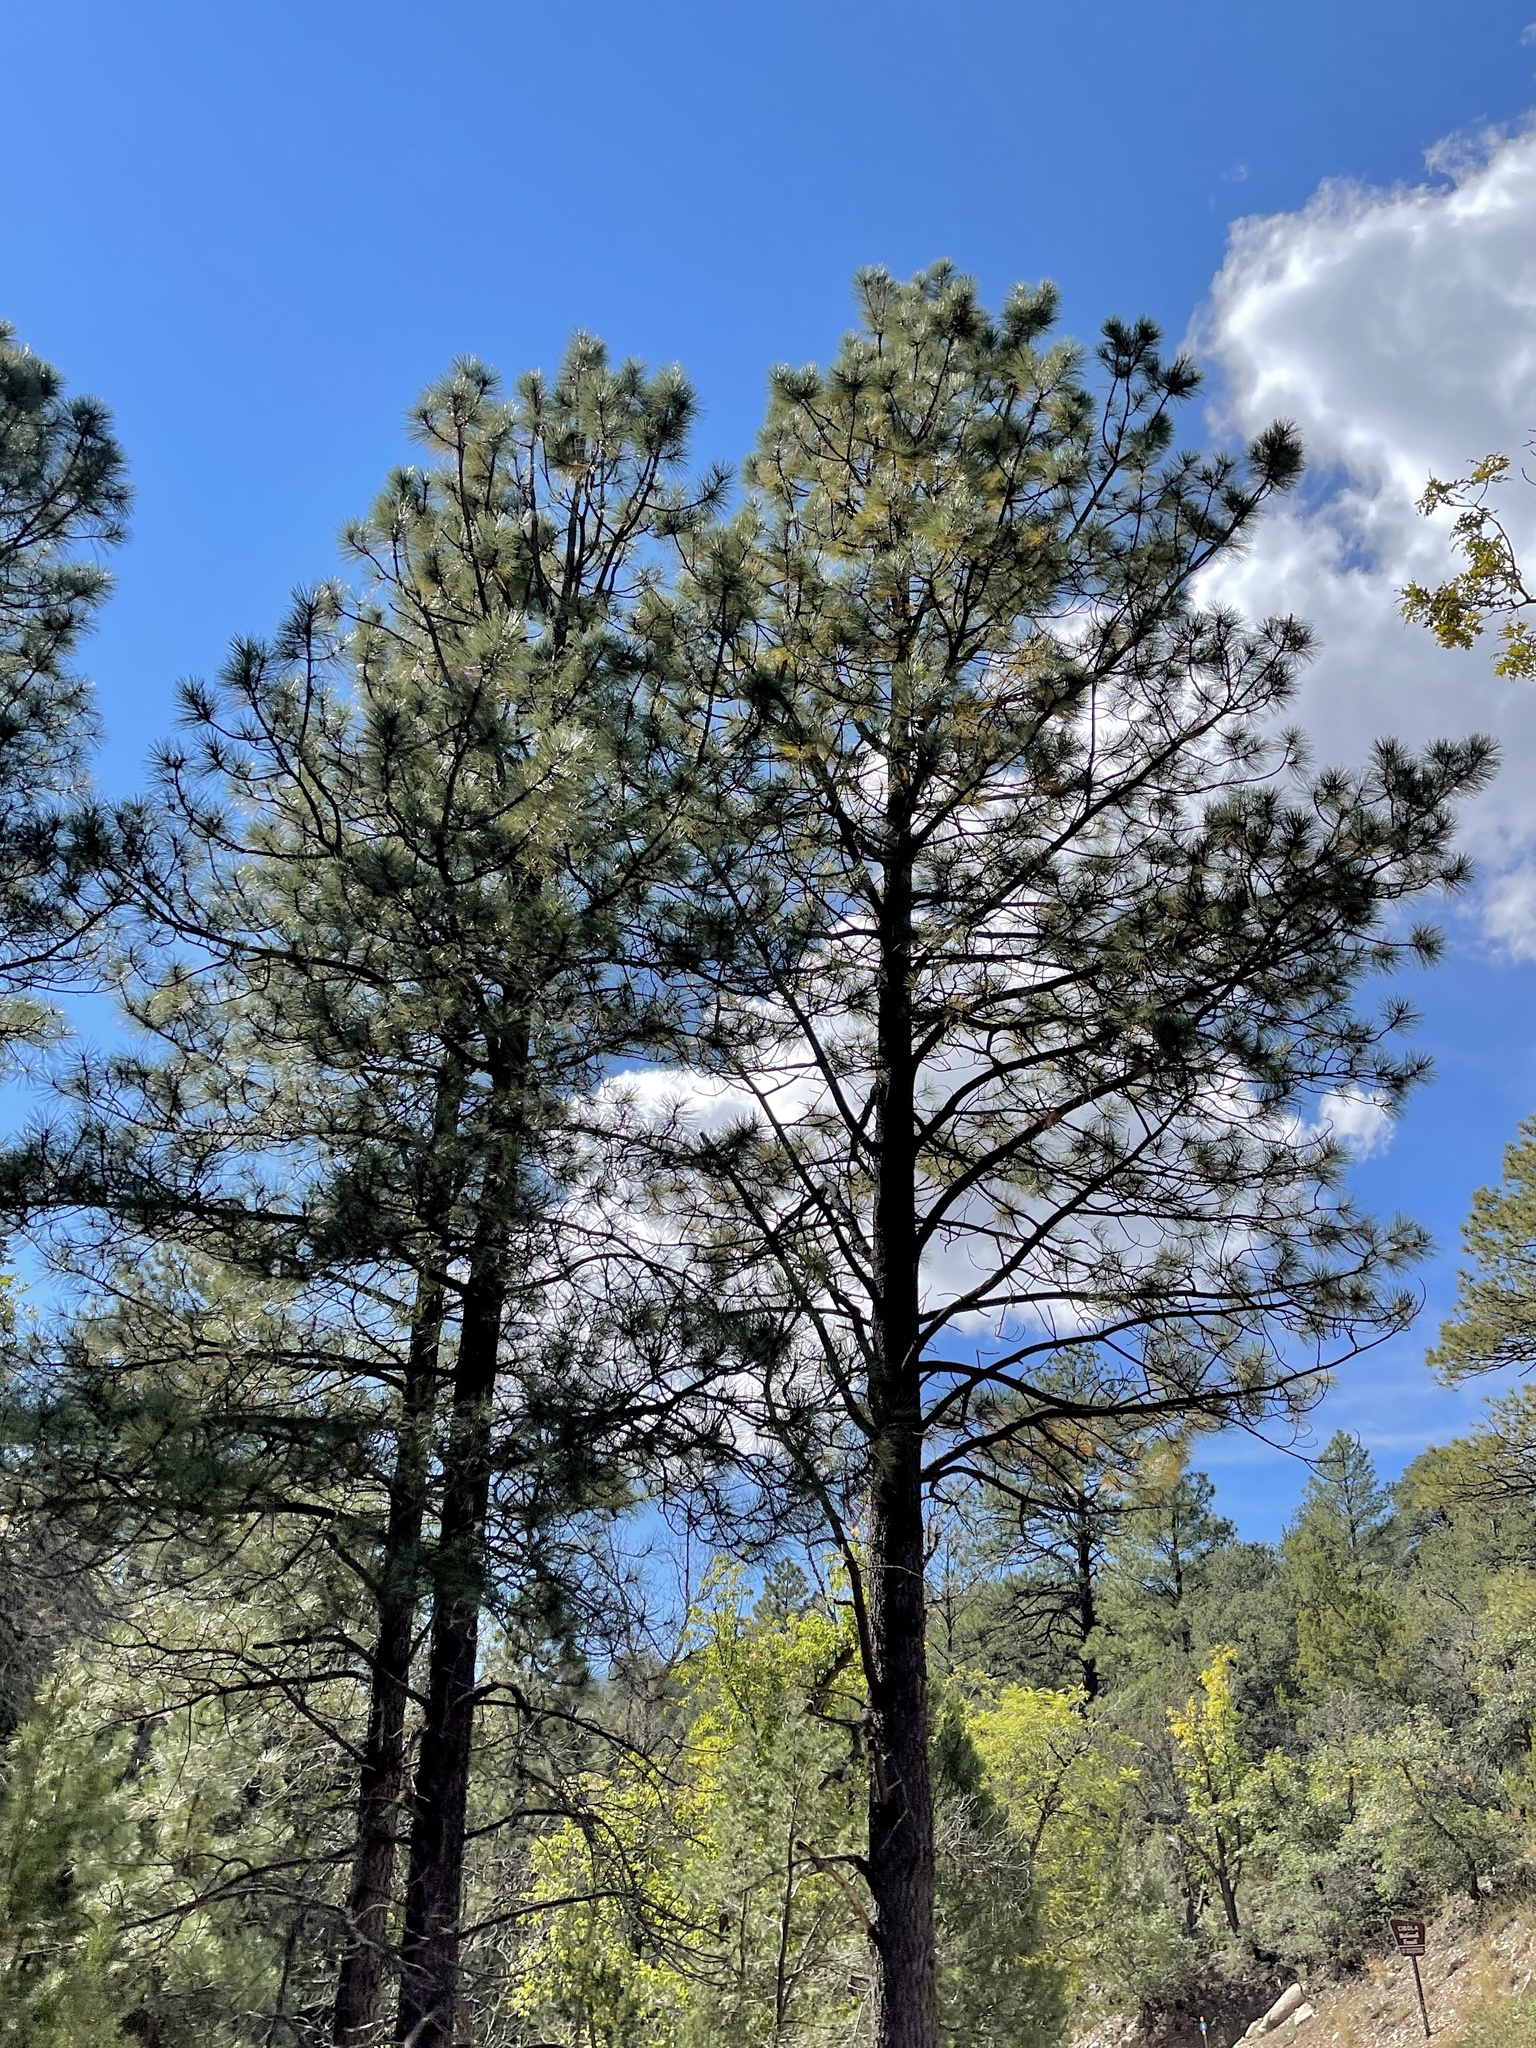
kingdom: Plantae
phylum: Tracheophyta
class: Pinopsida
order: Pinales
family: Pinaceae
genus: Pinus
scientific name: Pinus ponderosa
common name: Western yellow-pine
